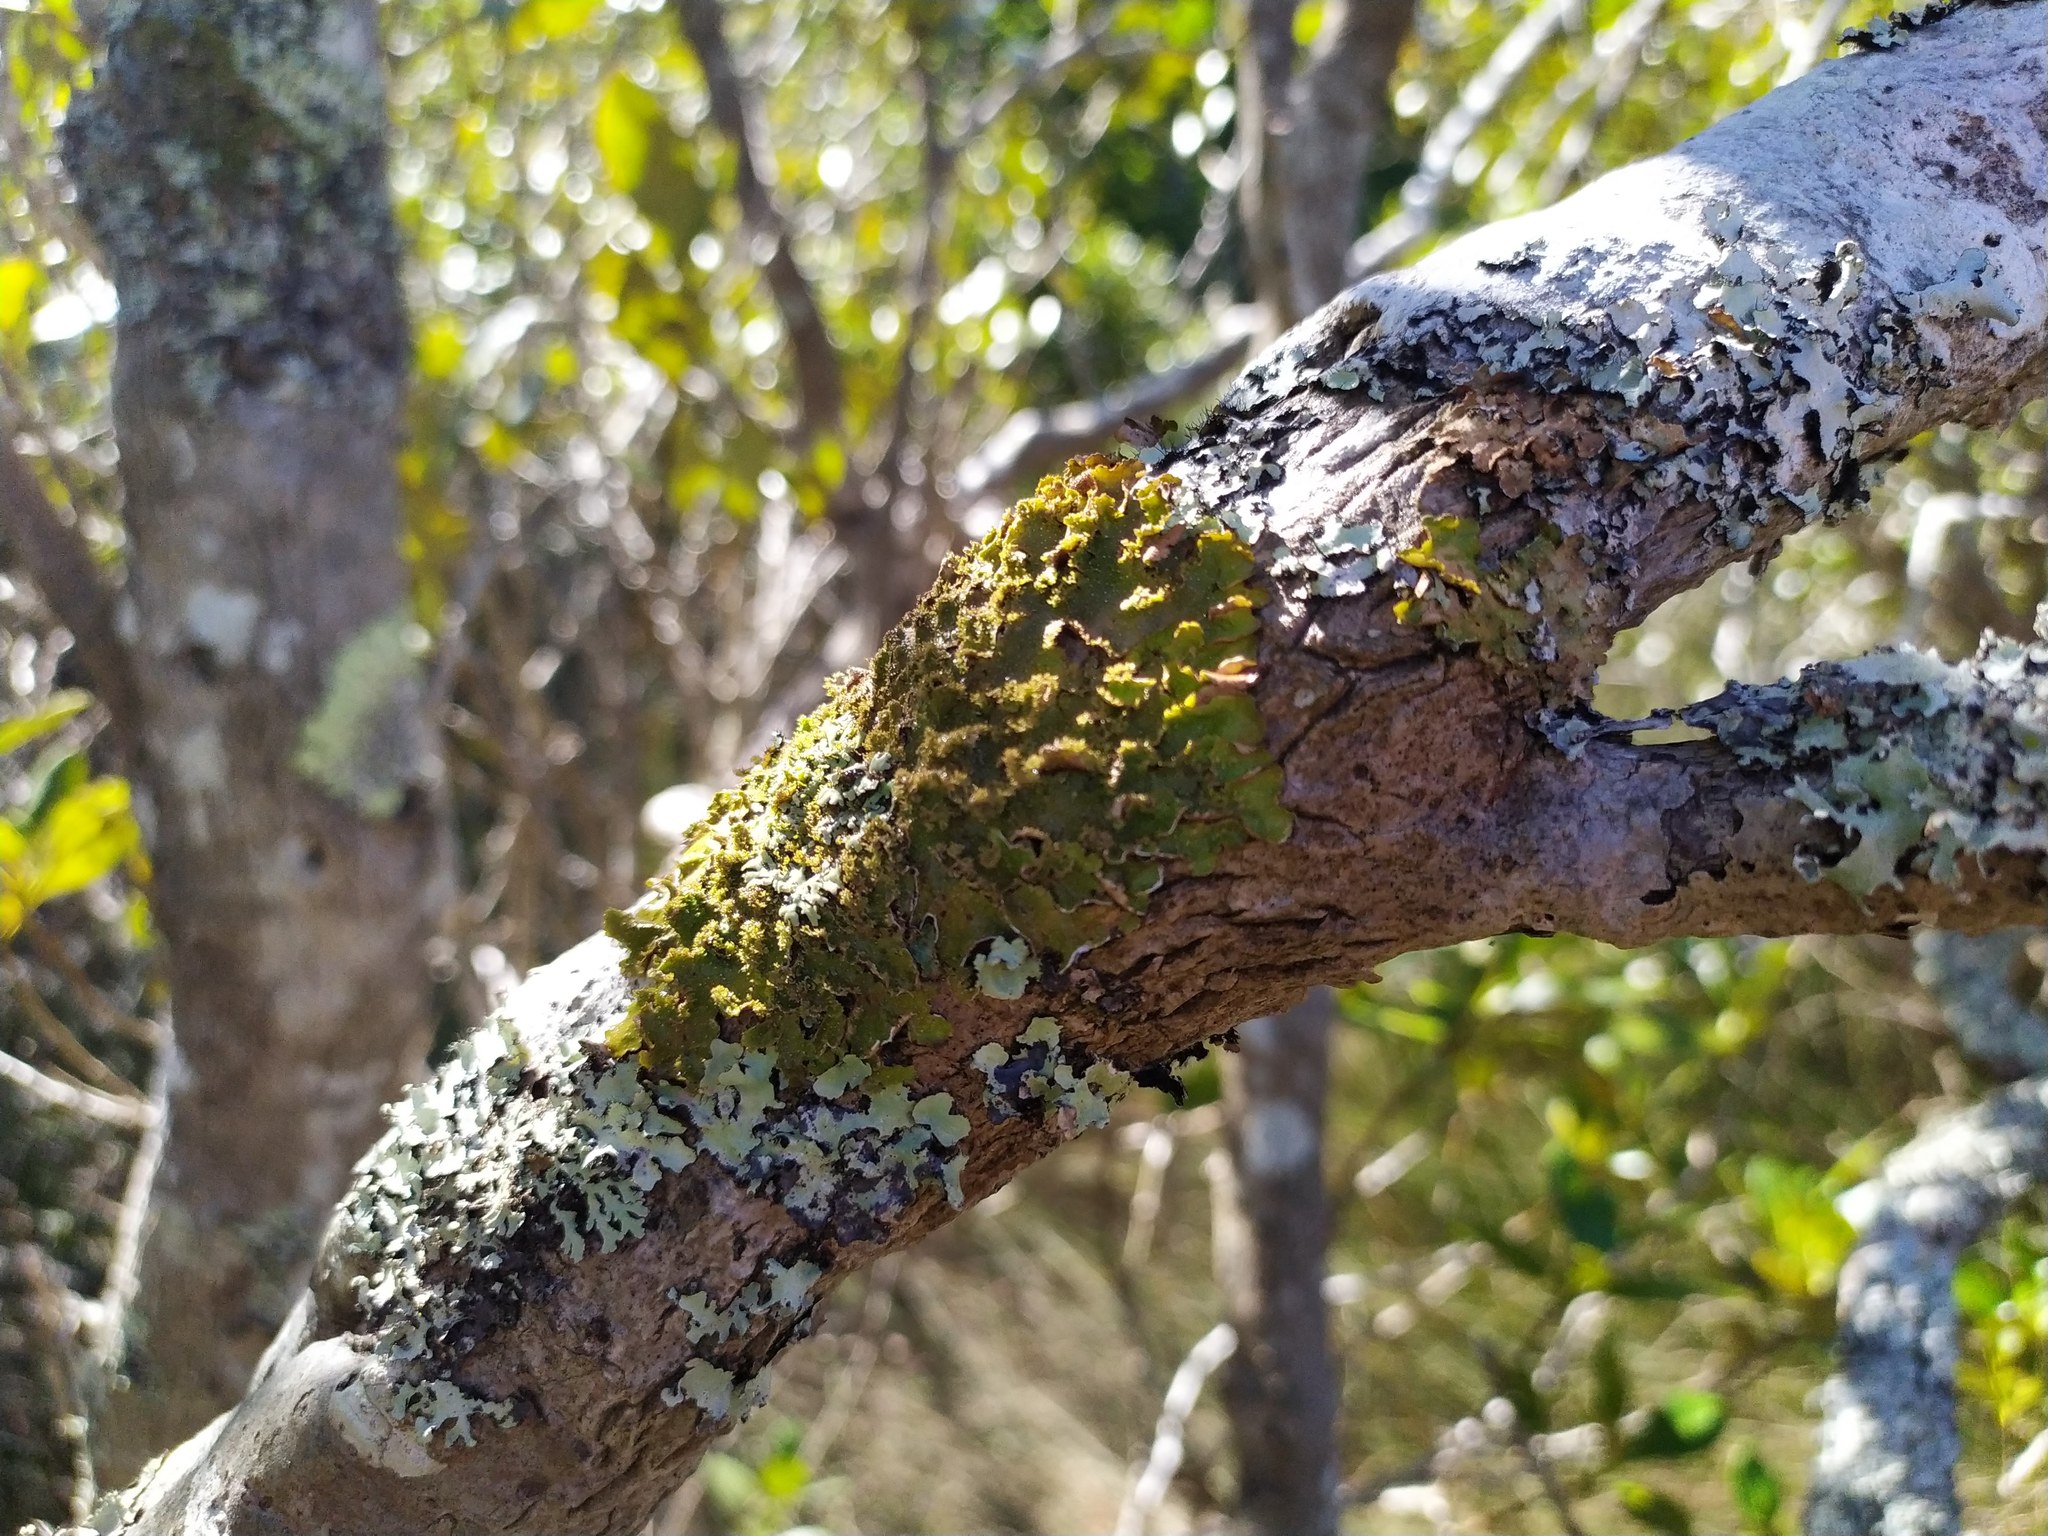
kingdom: Fungi
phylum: Ascomycota
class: Lecanoromycetes
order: Peltigerales
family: Lobariaceae
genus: Pseudocyphellaria
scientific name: Pseudocyphellaria wilkinsii
